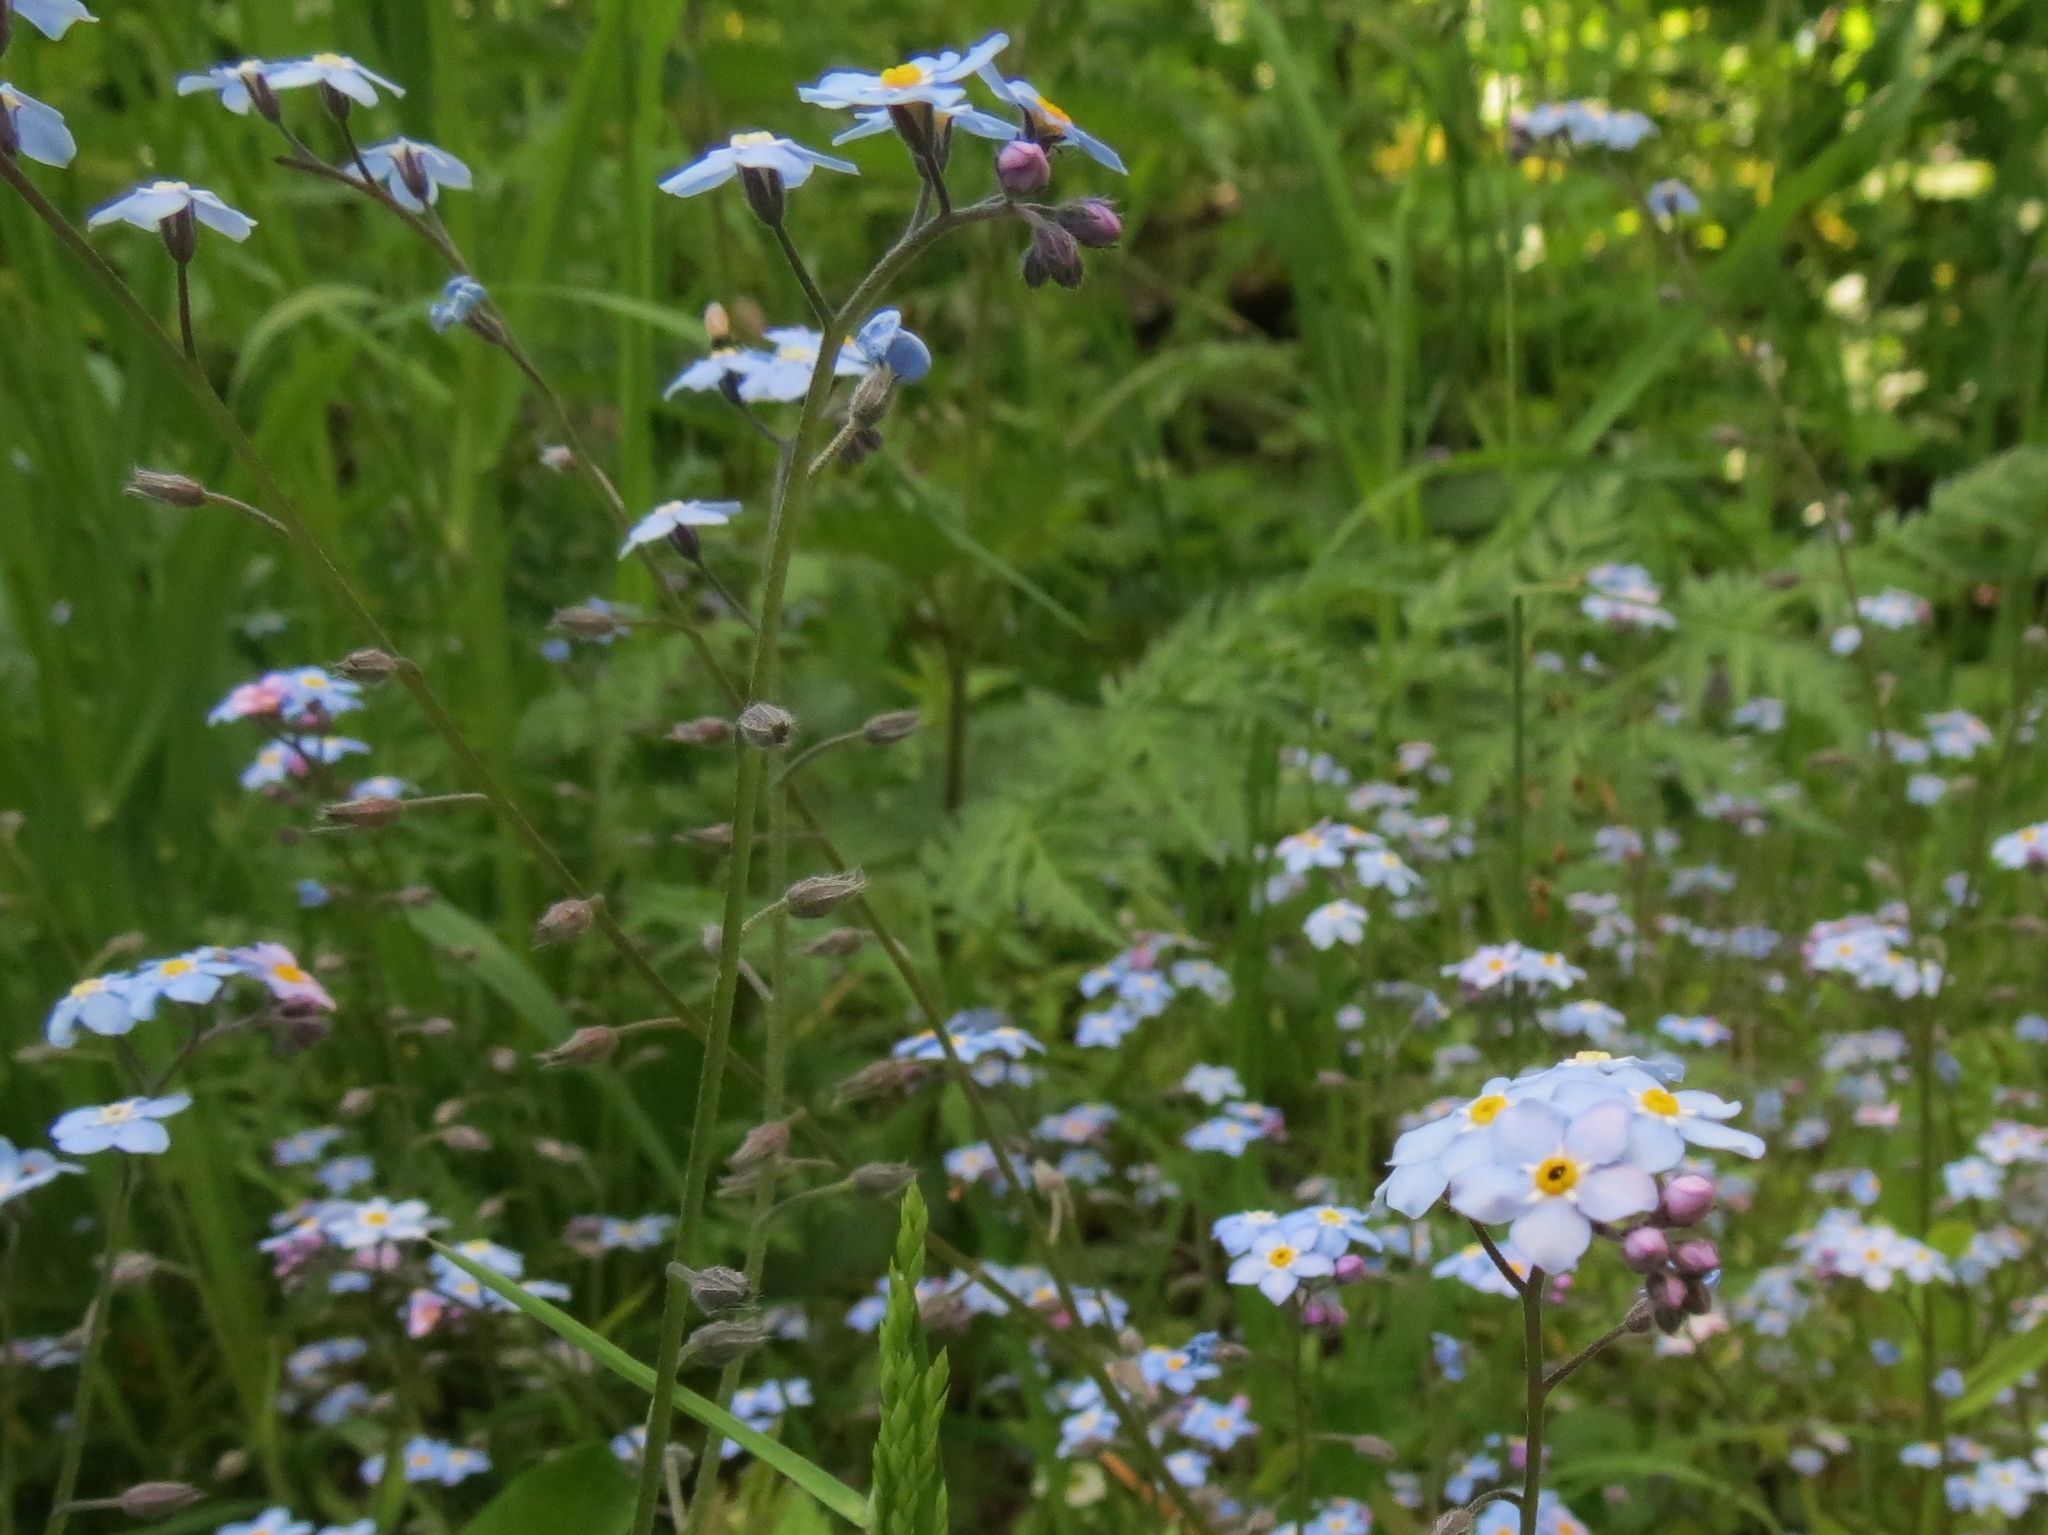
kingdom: Plantae
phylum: Tracheophyta
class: Magnoliopsida
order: Boraginales
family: Boraginaceae
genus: Myosotis
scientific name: Myosotis scorpioides
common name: Water forget-me-not
